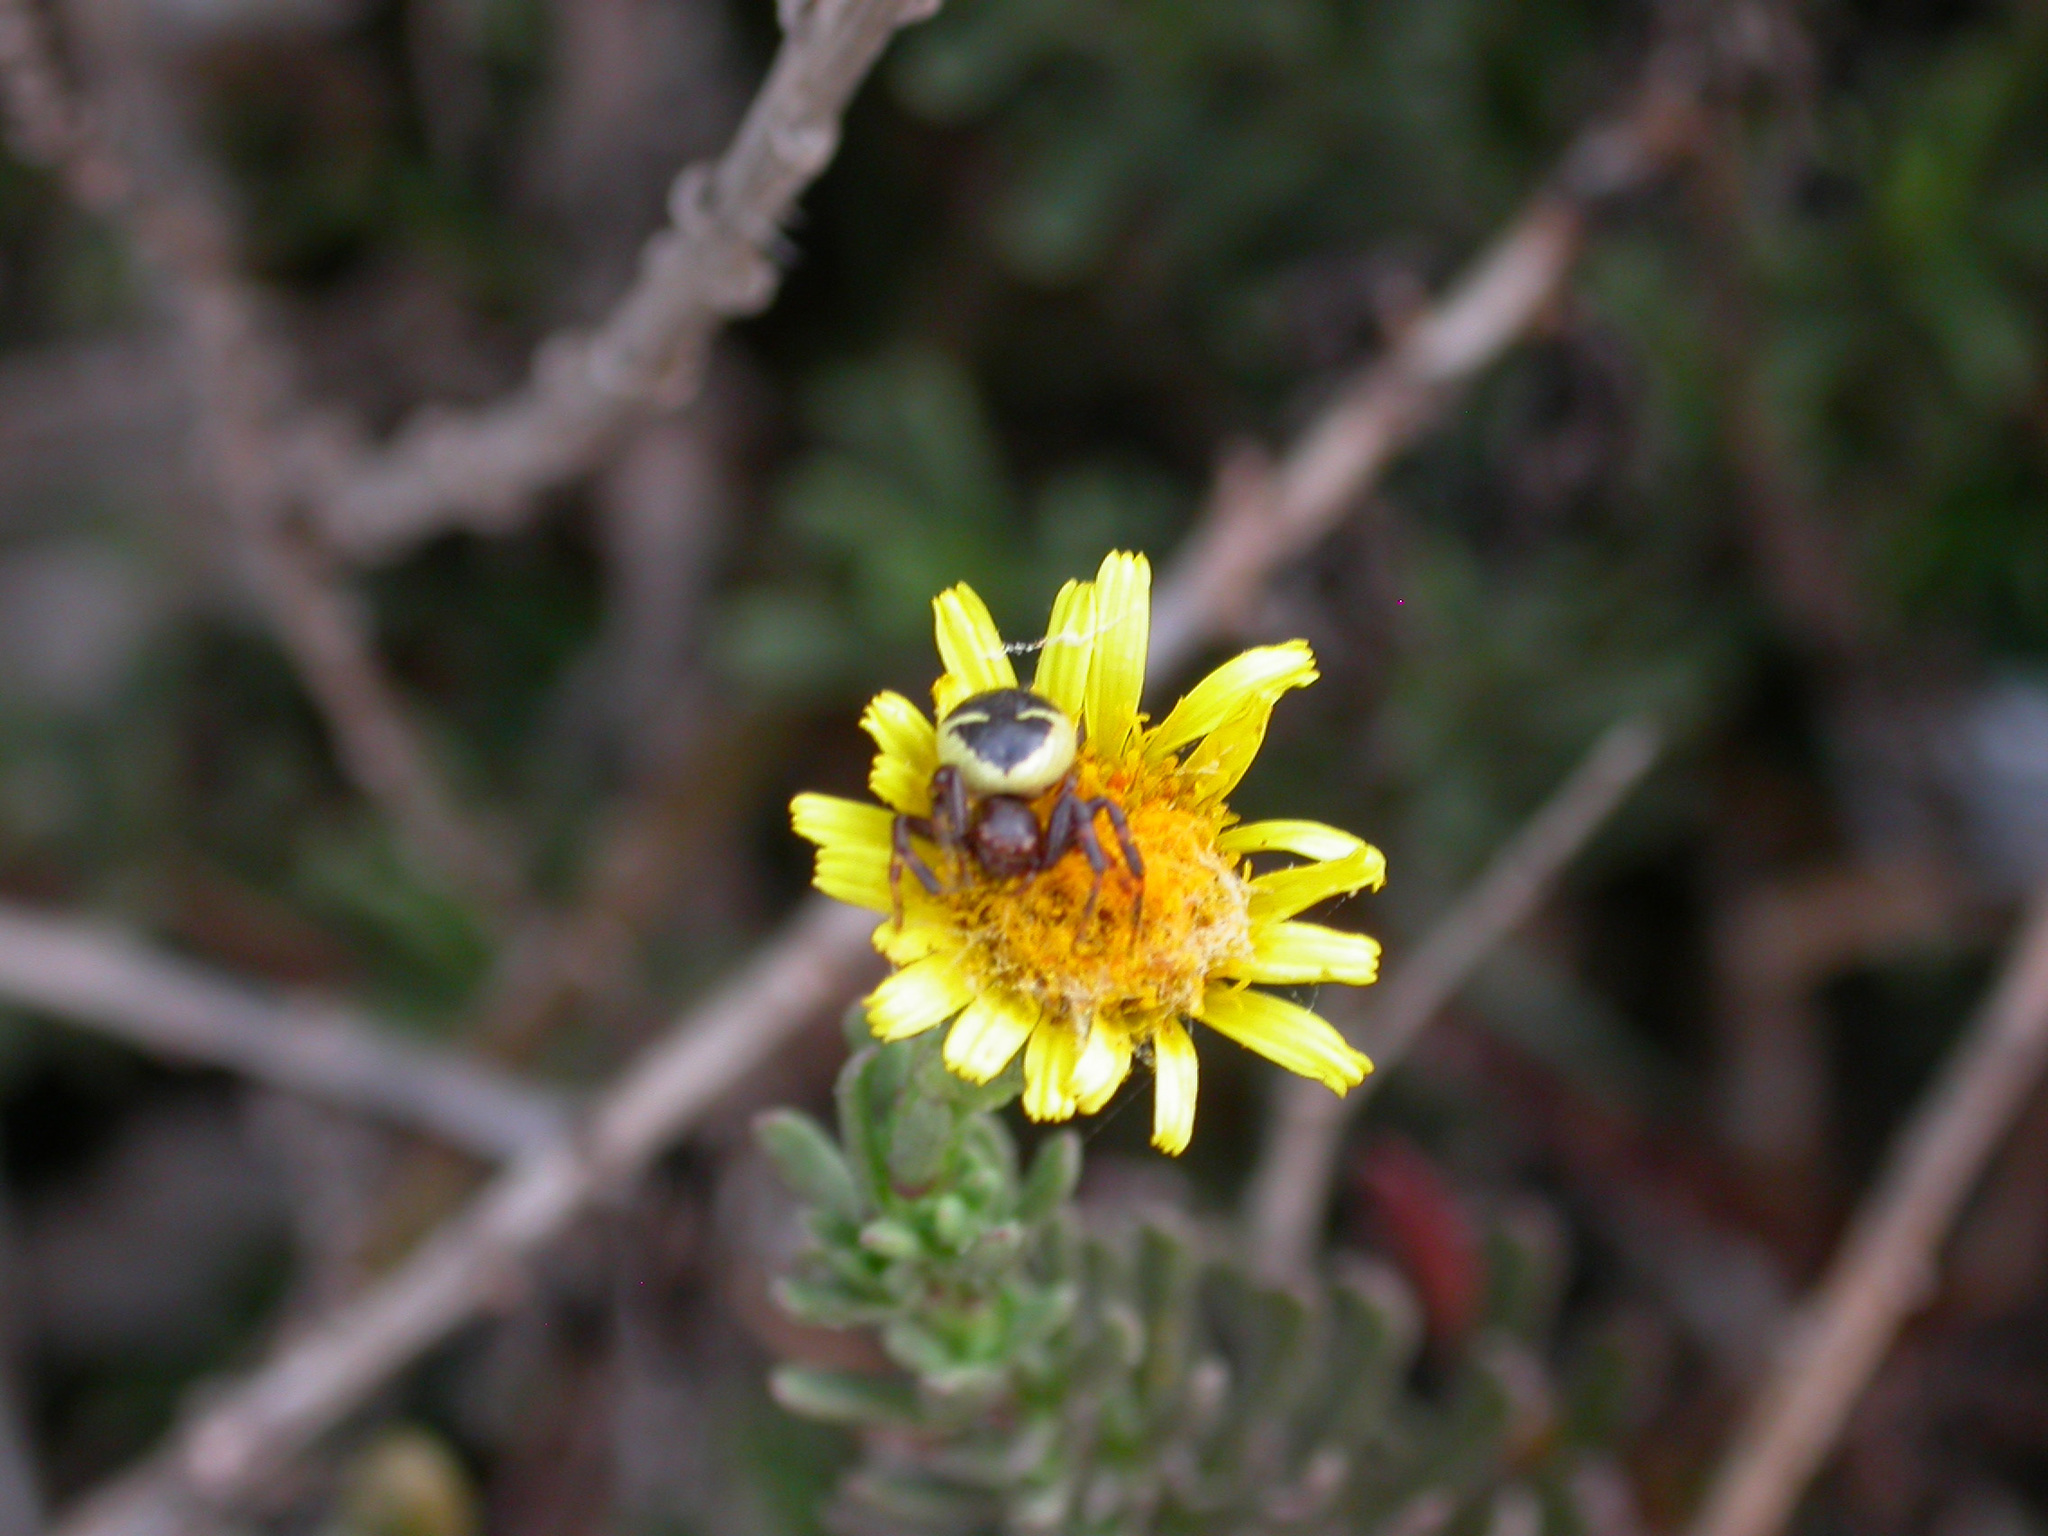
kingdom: Animalia
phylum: Arthropoda
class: Arachnida
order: Araneae
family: Thomisidae
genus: Synema
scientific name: Synema globosum
